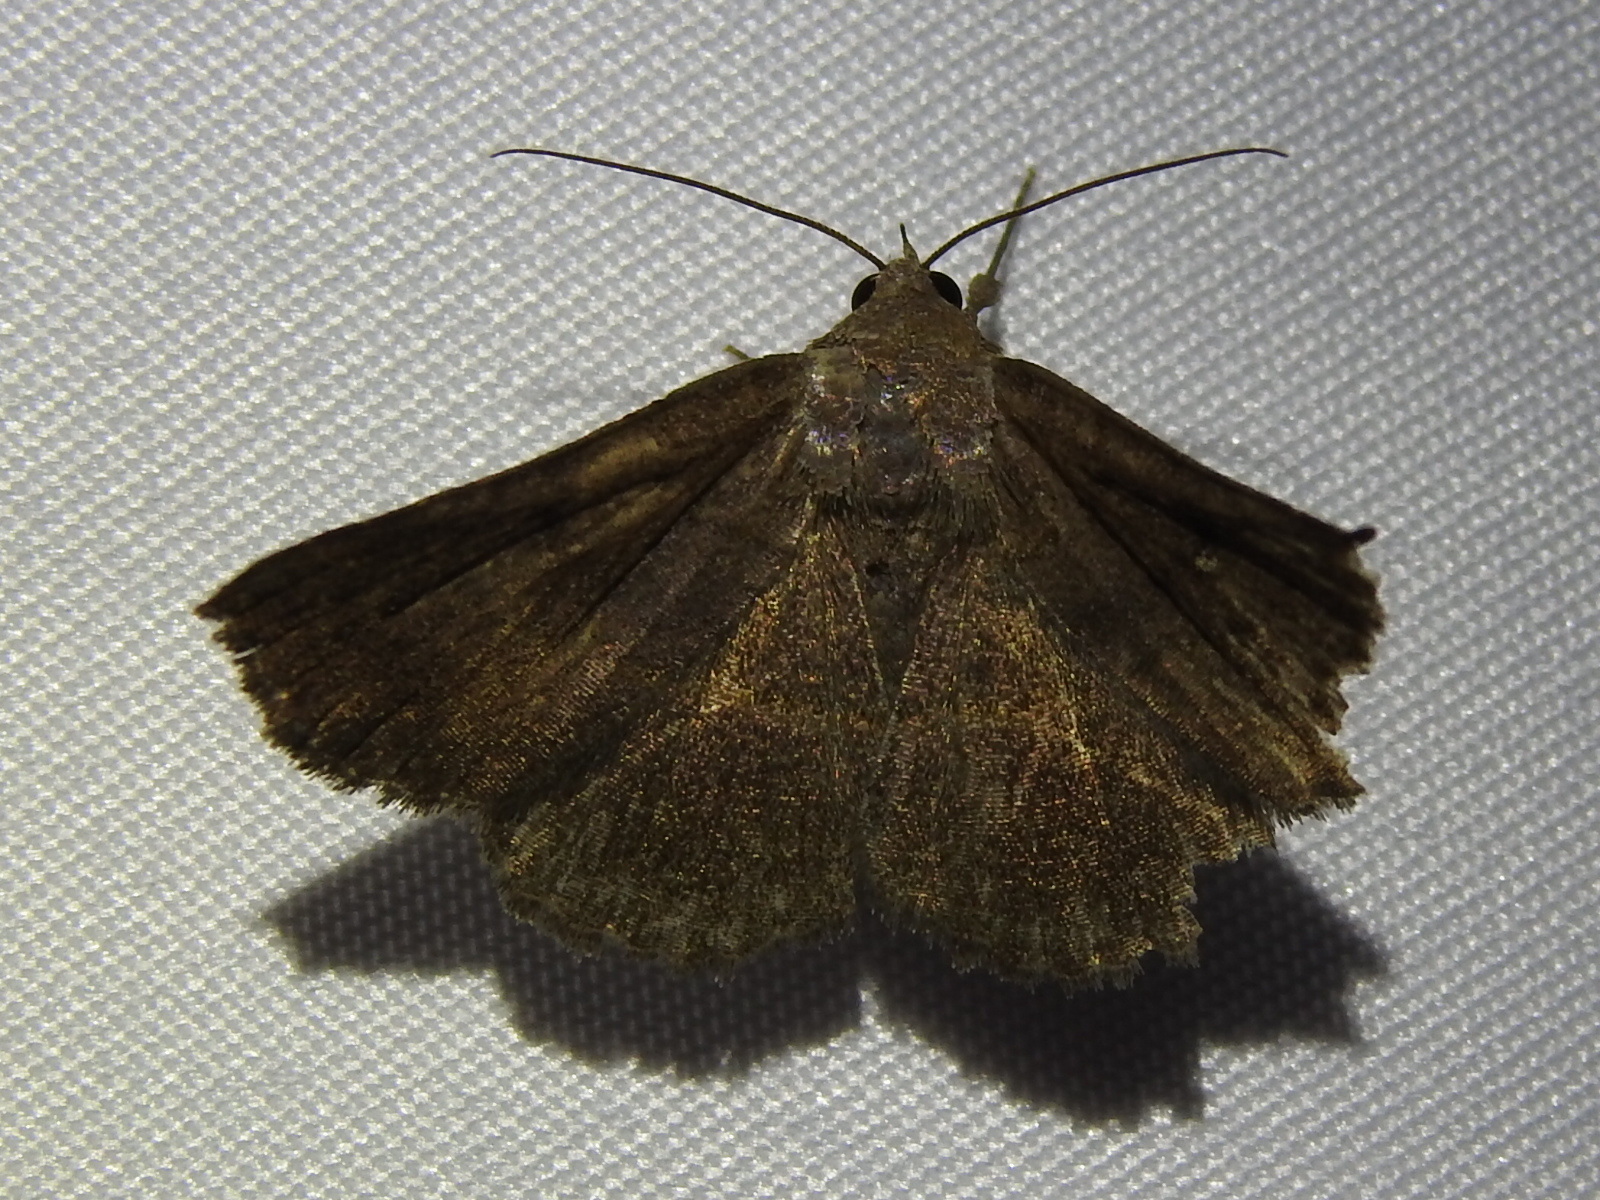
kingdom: Animalia
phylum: Arthropoda
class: Insecta
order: Lepidoptera
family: Erebidae
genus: Lesmone
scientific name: Lesmone detrahens
